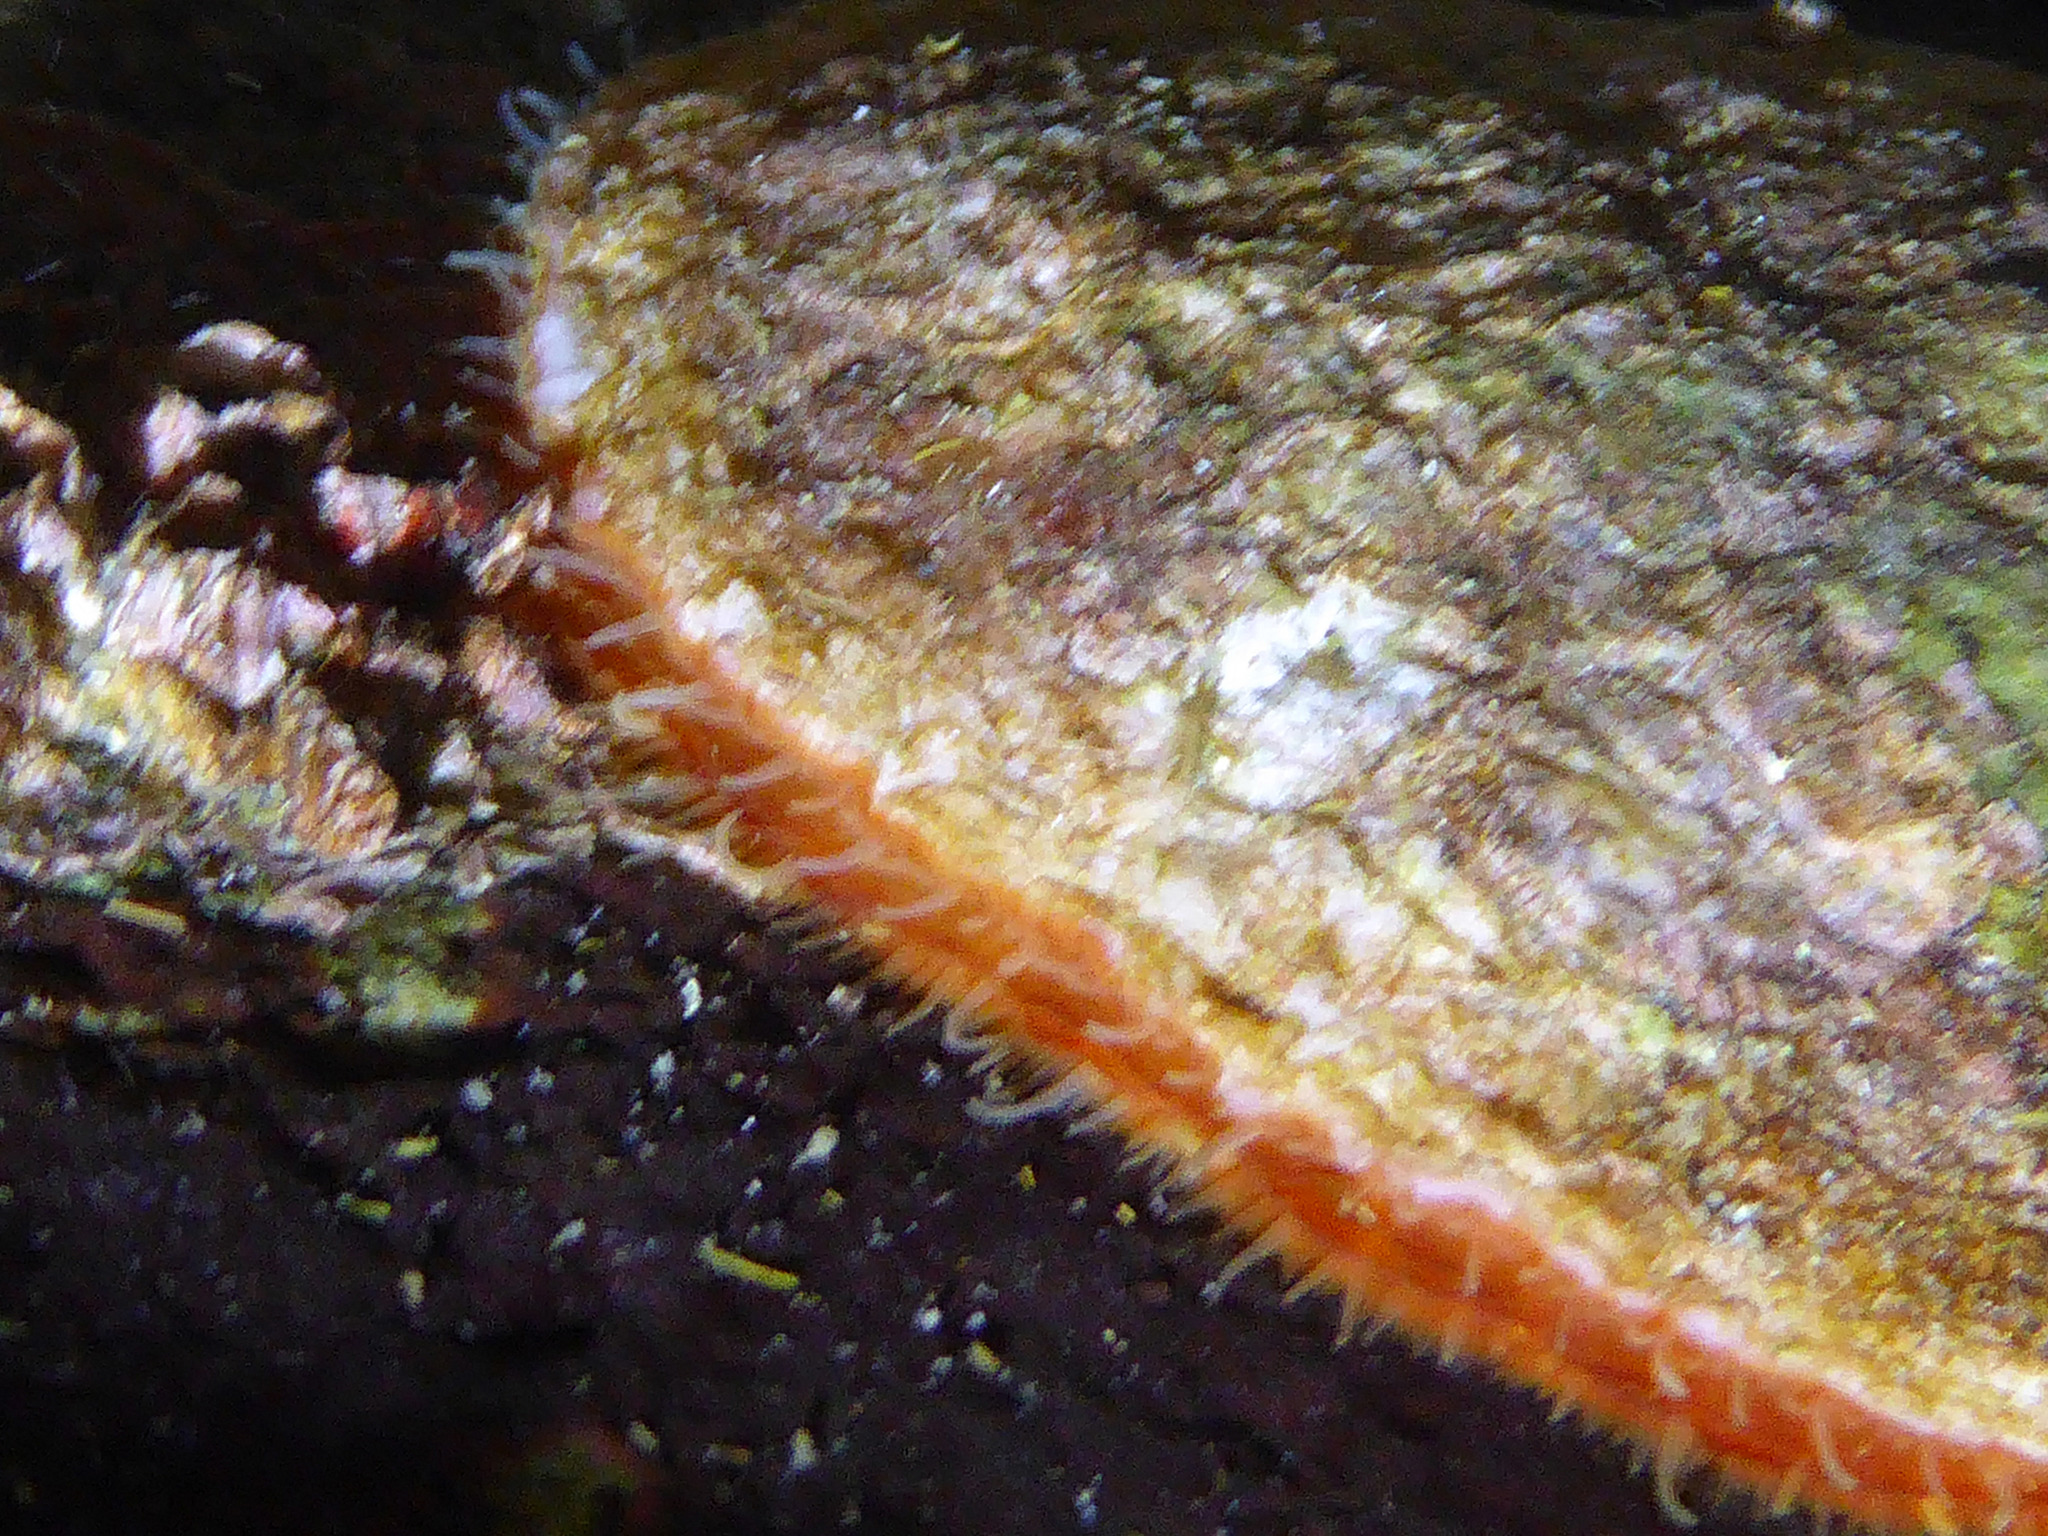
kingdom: Animalia
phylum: Mollusca
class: Bivalvia
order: Pectinida
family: Anomiidae
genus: Pododesmus
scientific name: Pododesmus macrochisma
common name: Alaska jingle
